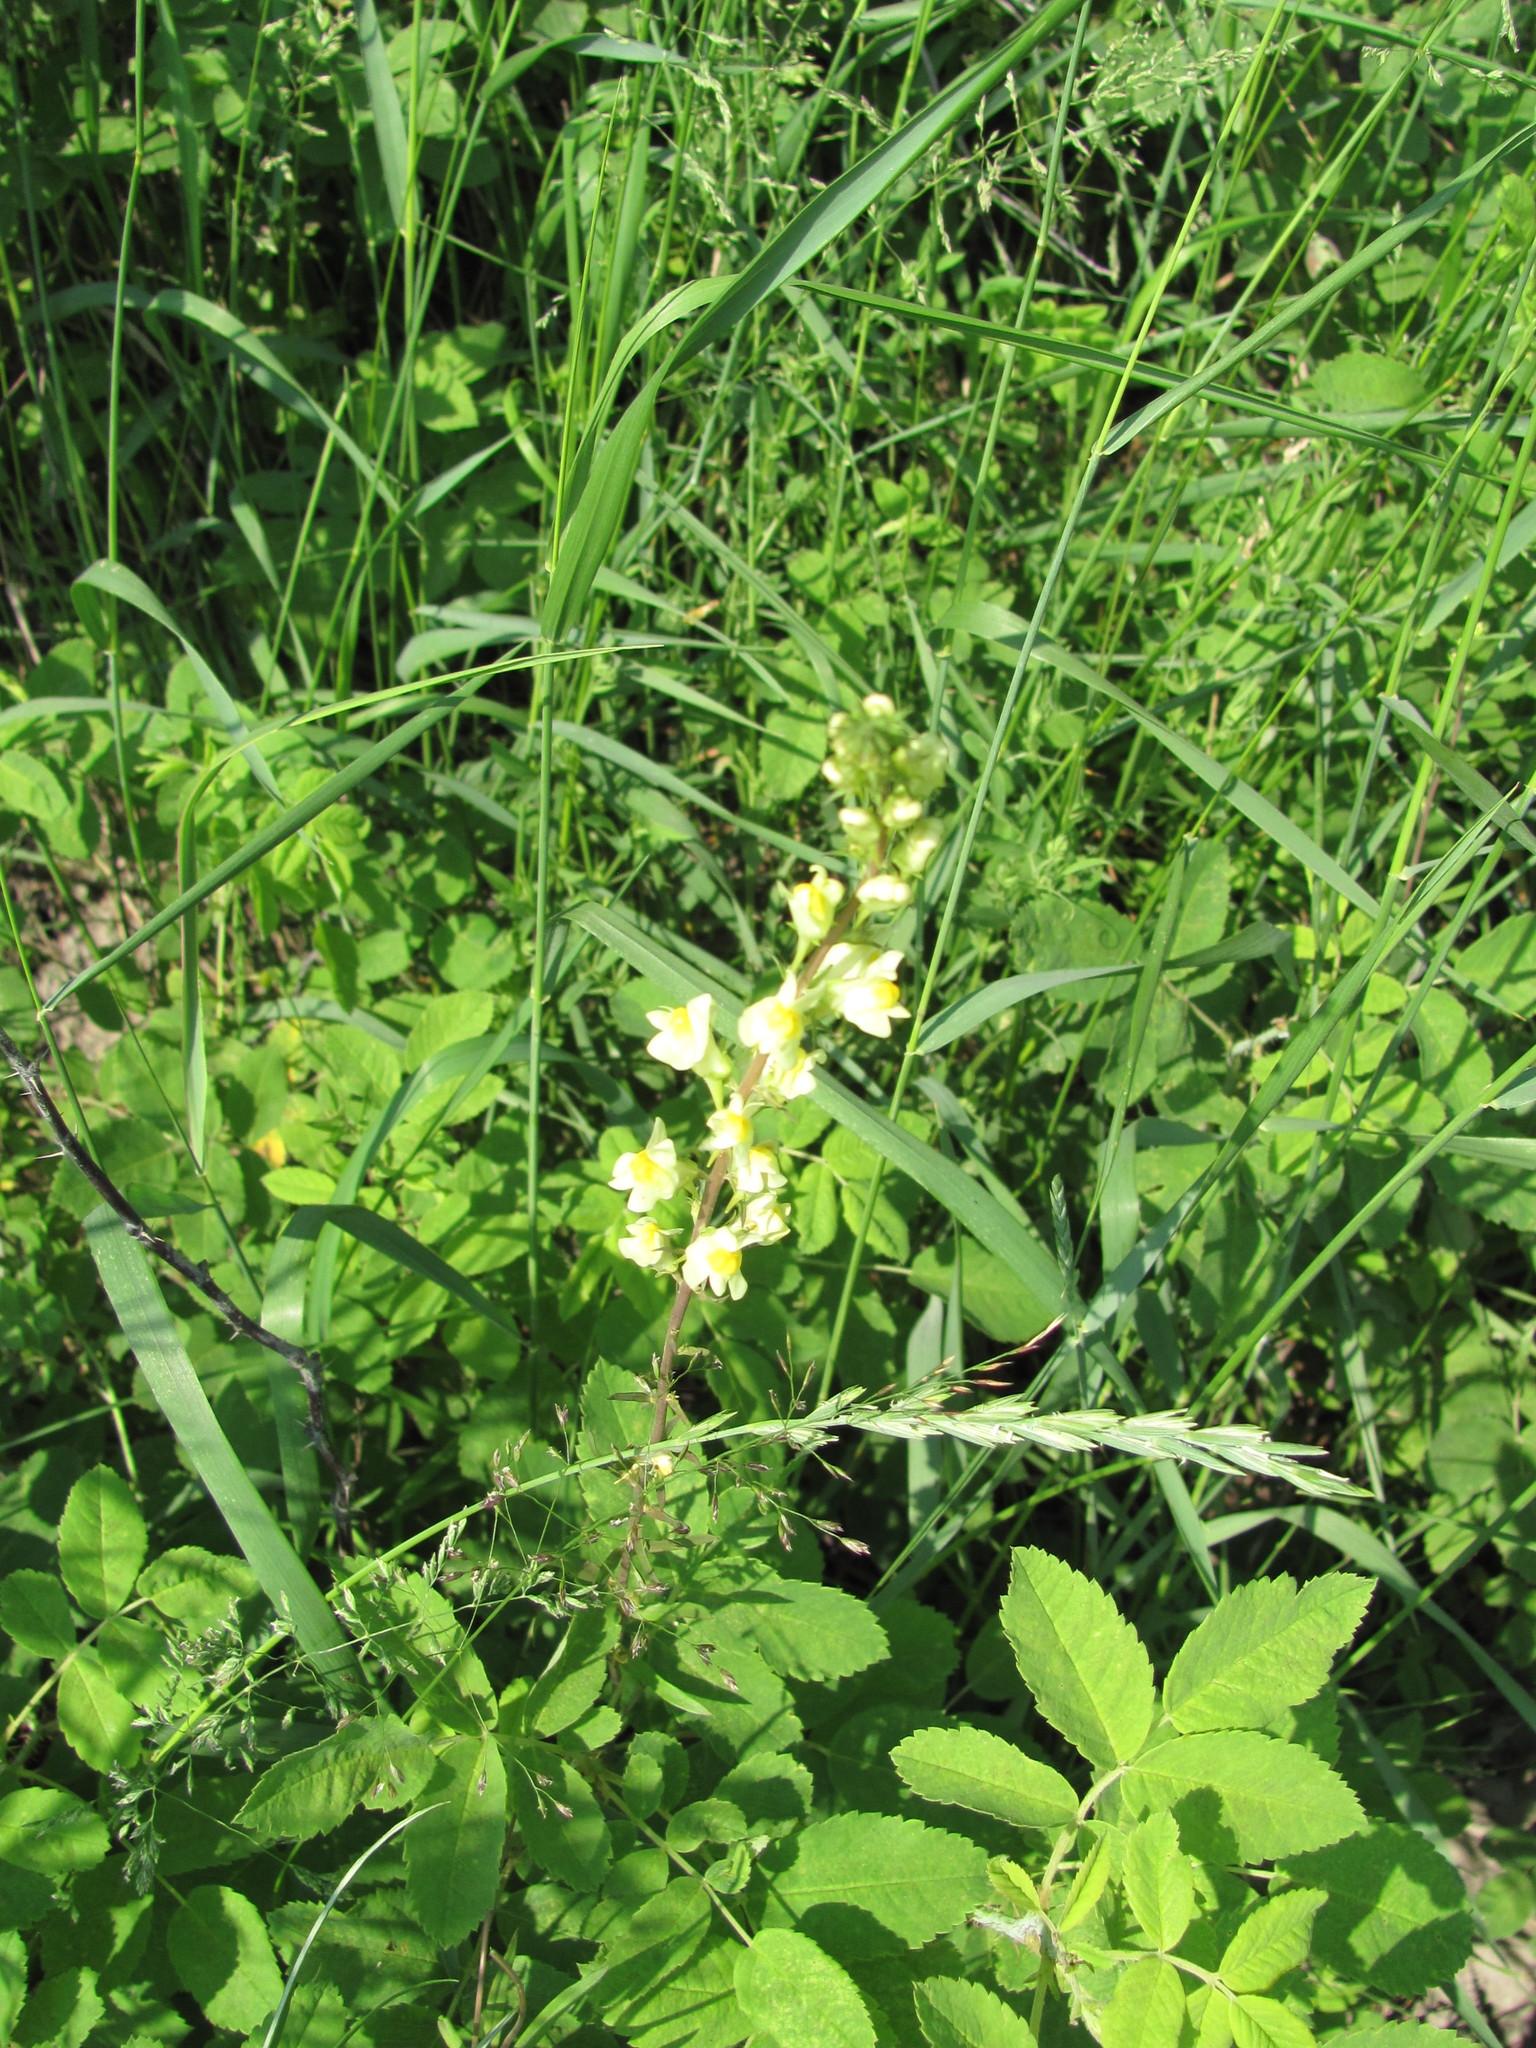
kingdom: Plantae
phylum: Tracheophyta
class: Magnoliopsida
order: Lamiales
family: Plantaginaceae
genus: Linaria
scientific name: Linaria vulgaris
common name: Butter and eggs
